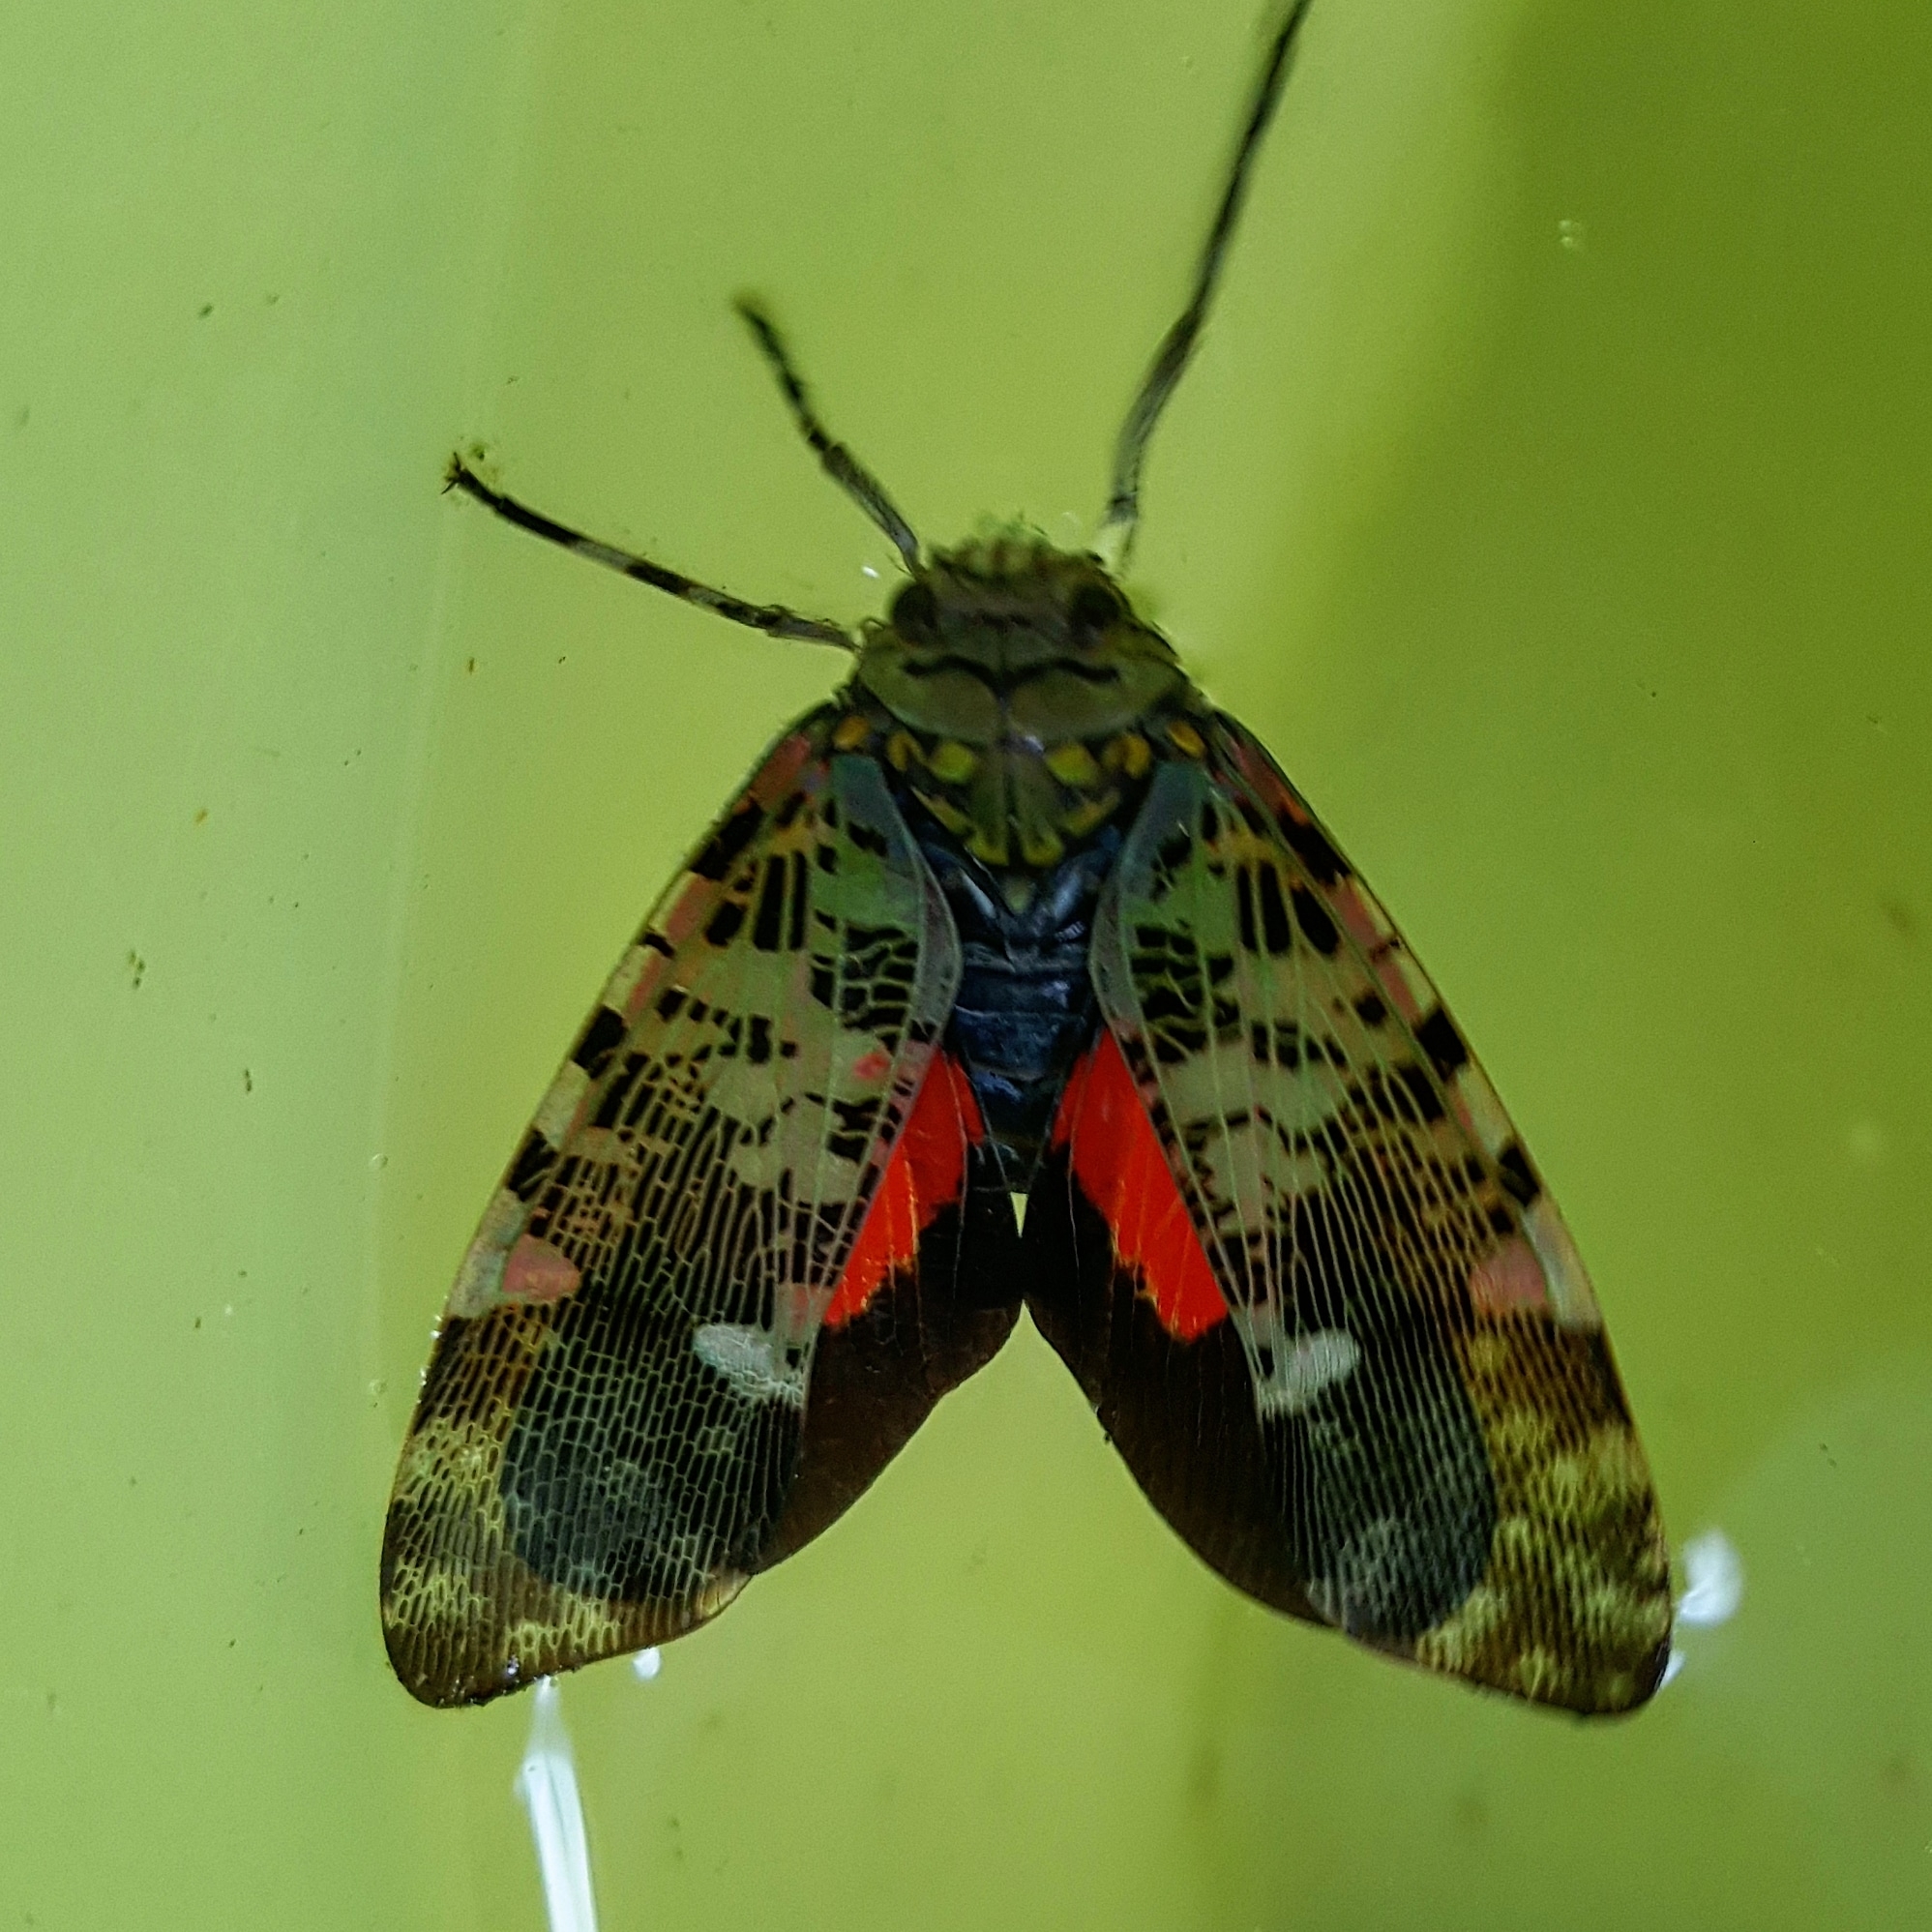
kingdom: Animalia
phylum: Arthropoda
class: Insecta
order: Hemiptera
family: Fulgoridae
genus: Obia
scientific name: Obia tenebrosa
